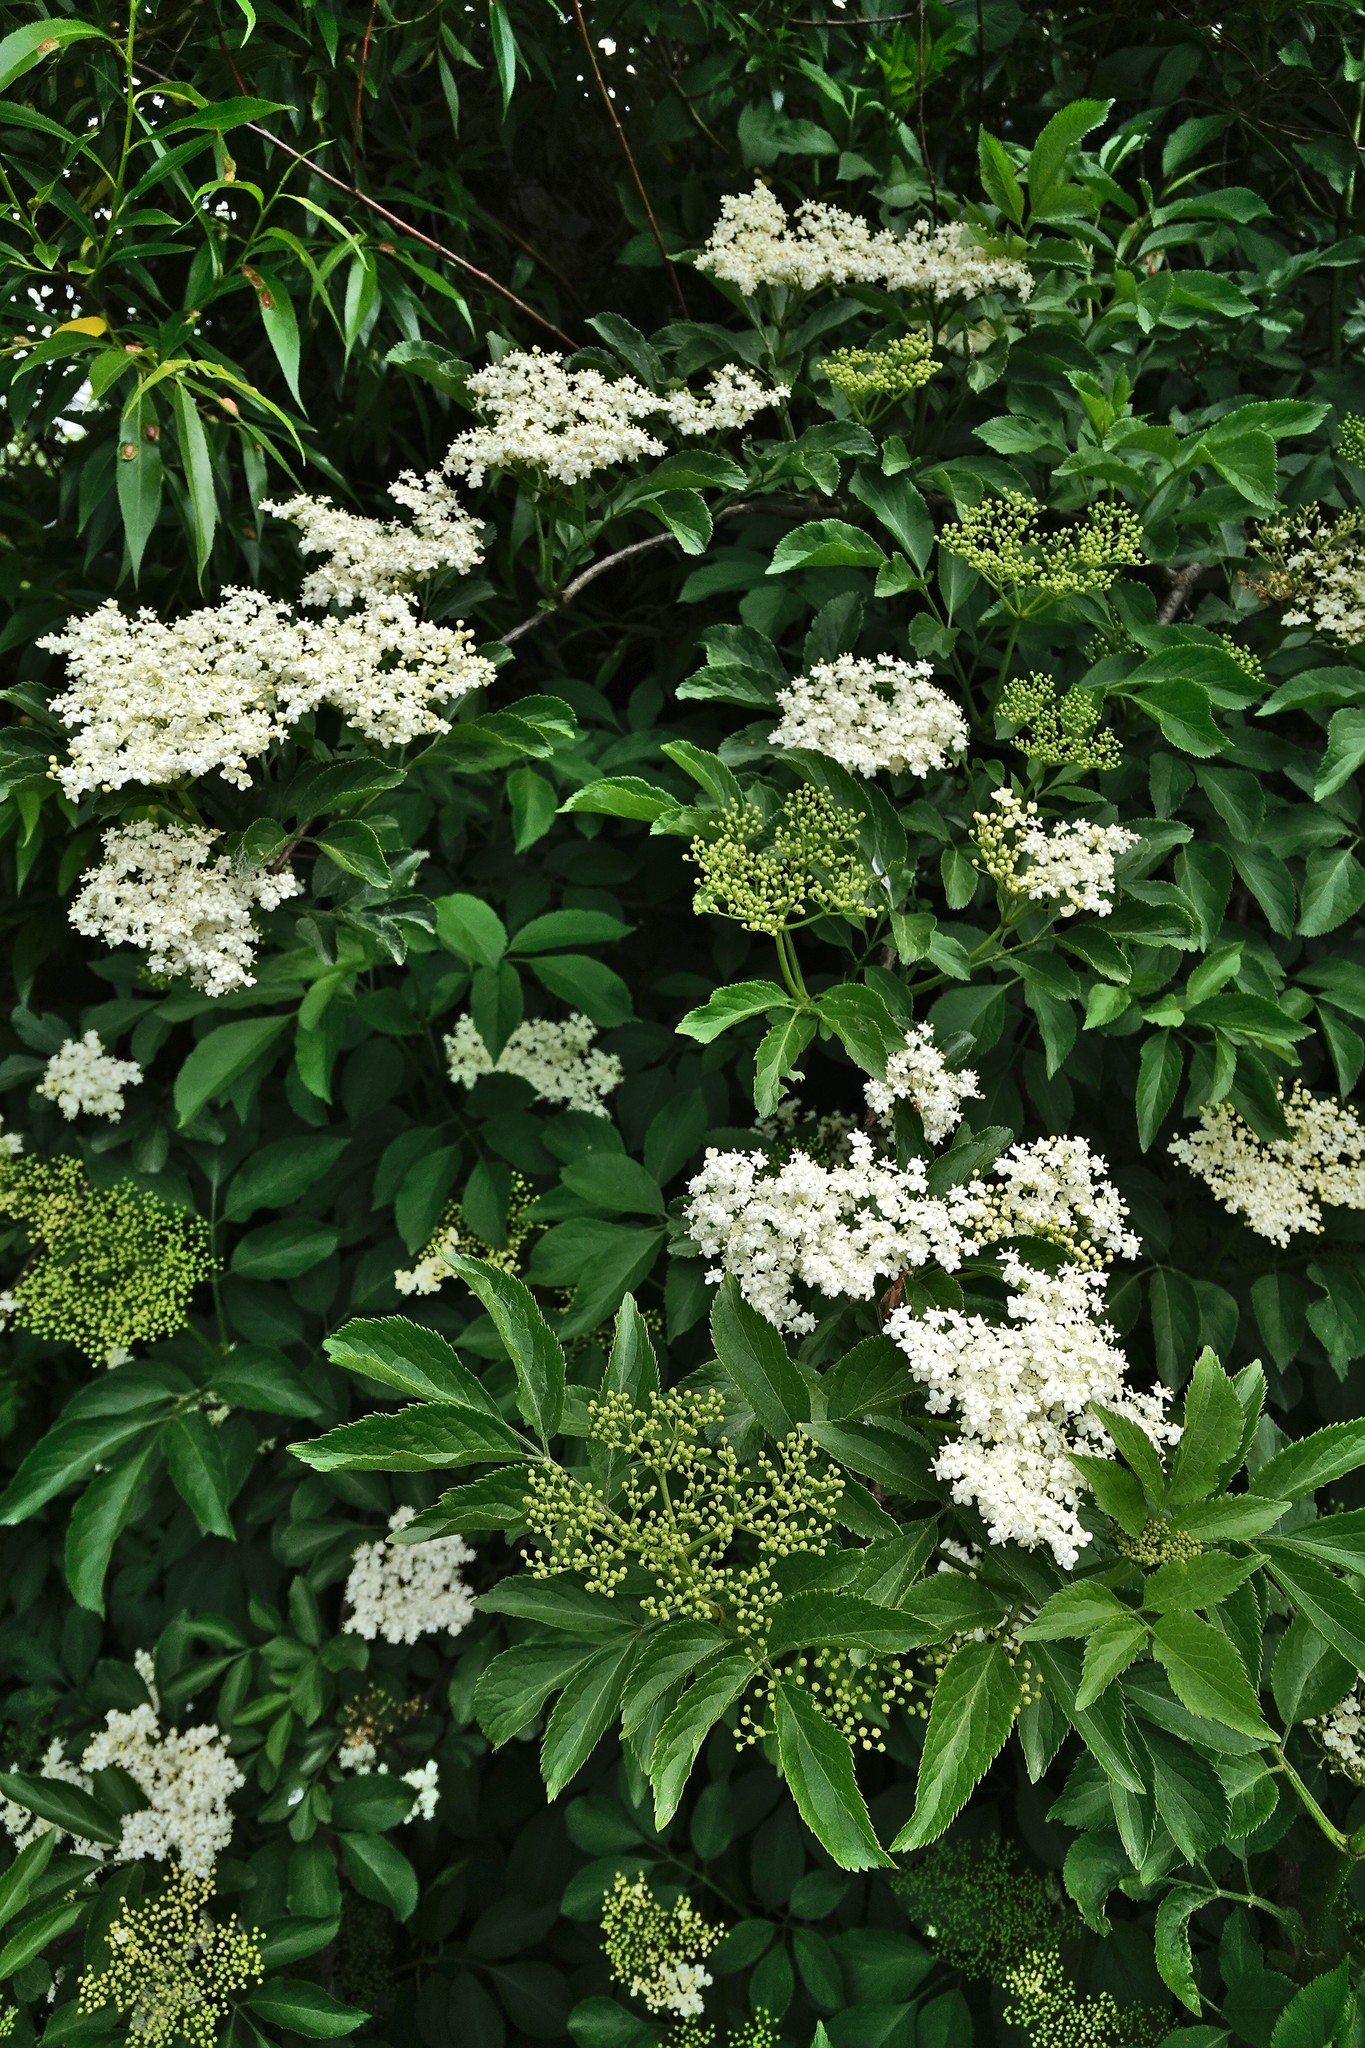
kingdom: Plantae
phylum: Tracheophyta
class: Magnoliopsida
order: Dipsacales
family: Viburnaceae
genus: Sambucus
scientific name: Sambucus nigra
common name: Elder
